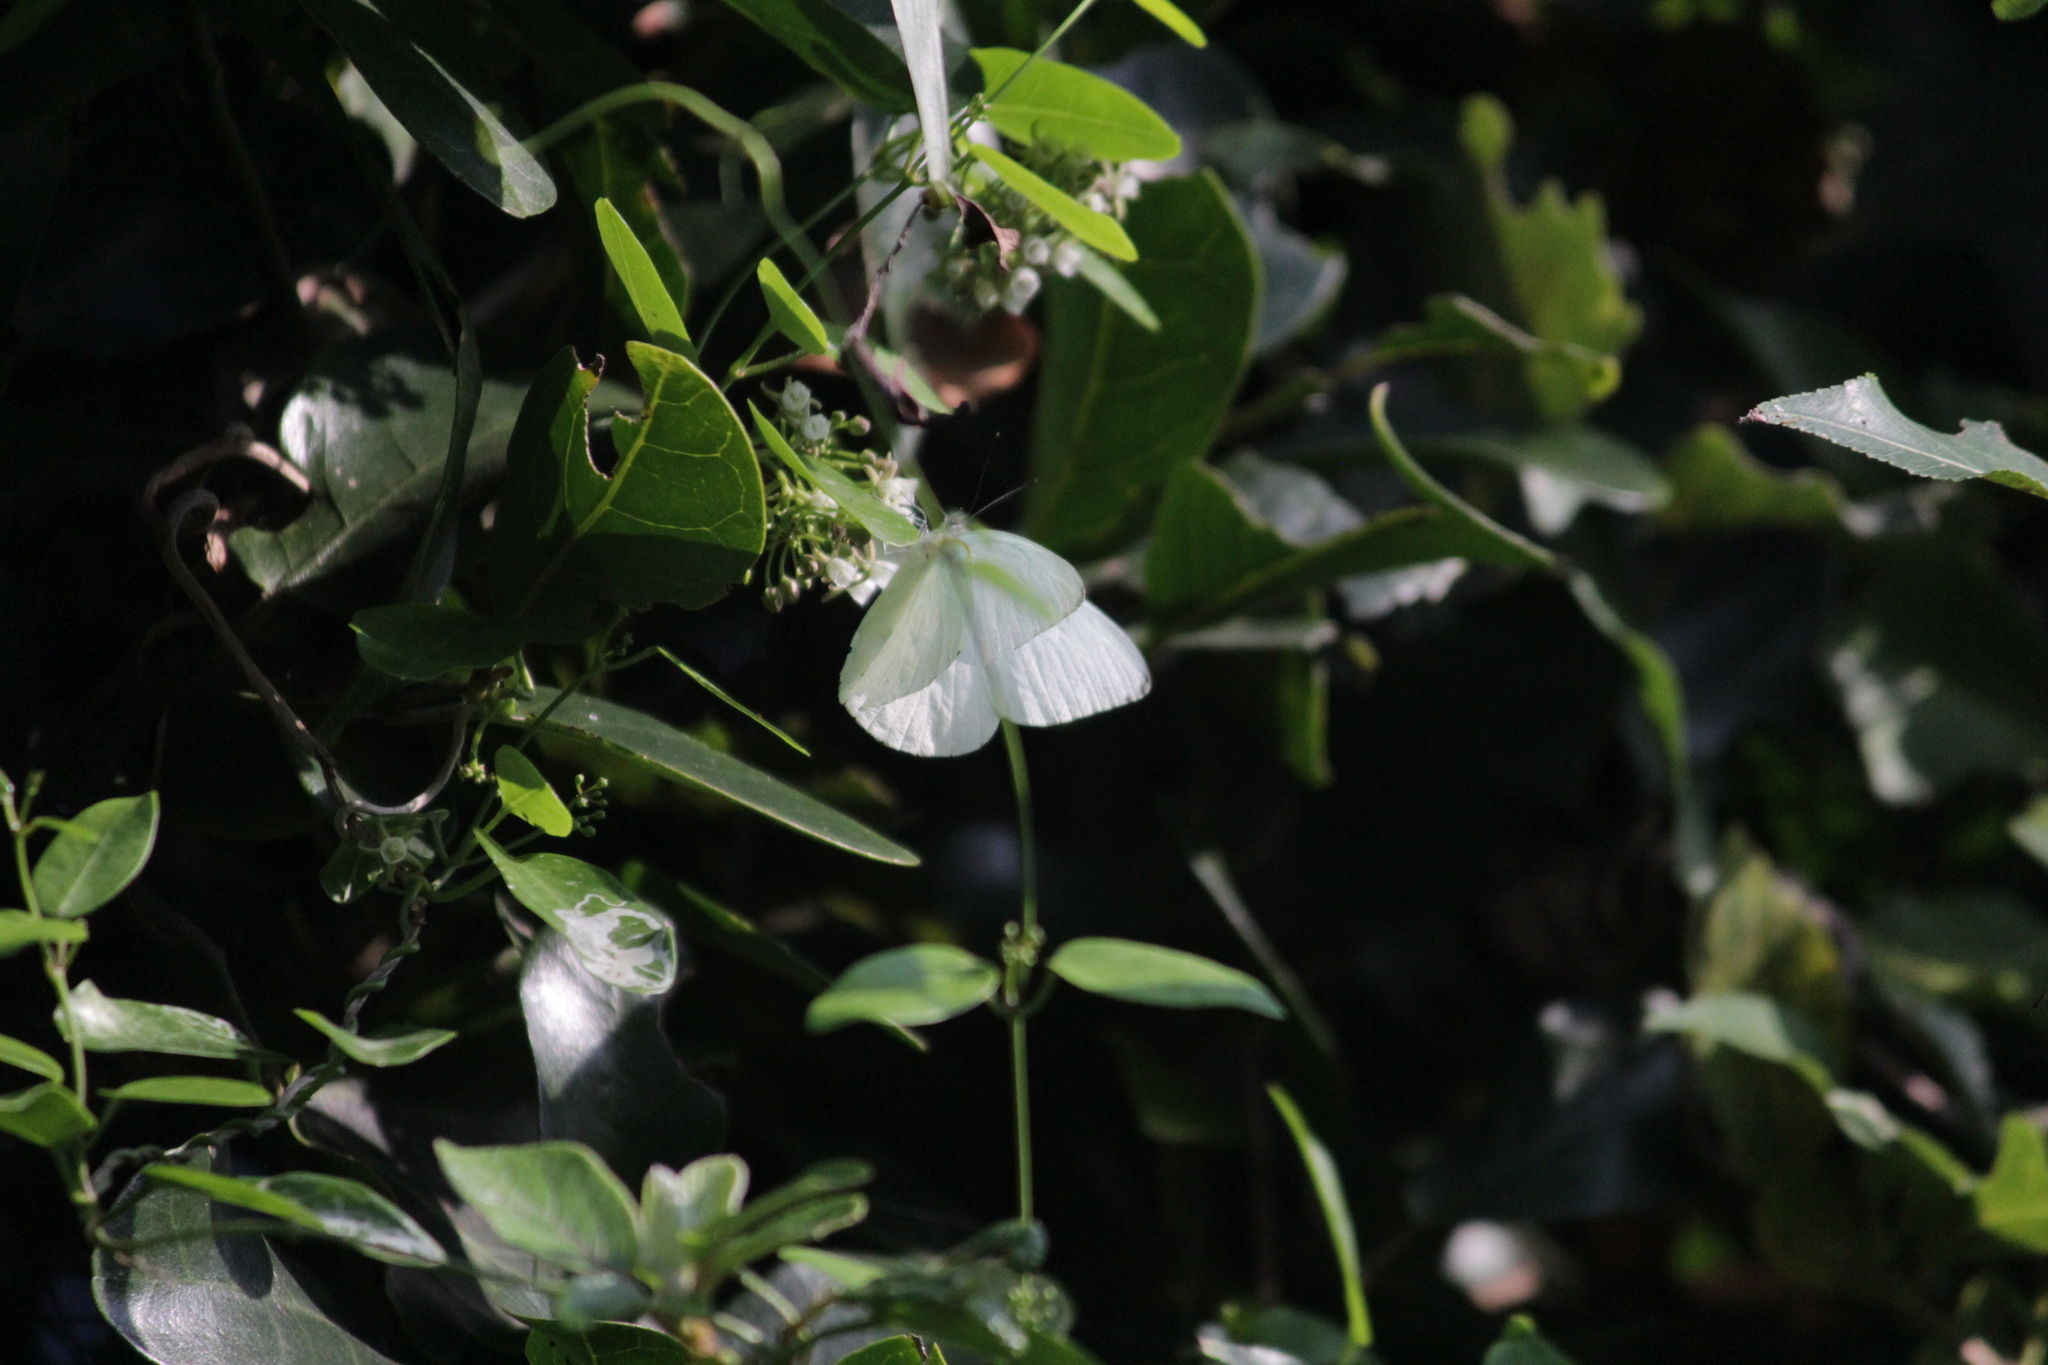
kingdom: Animalia
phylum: Arthropoda
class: Insecta
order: Lepidoptera
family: Pieridae
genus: Dixeia
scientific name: Dixeia pigea
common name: Ant-heap small white
